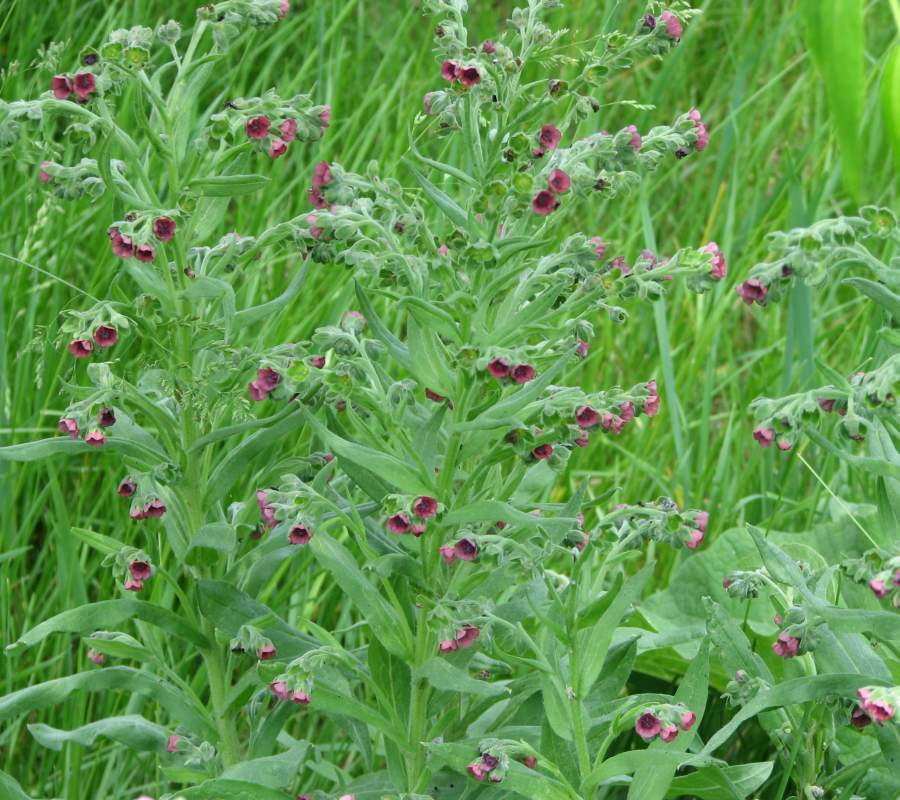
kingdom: Plantae
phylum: Tracheophyta
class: Magnoliopsida
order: Boraginales
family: Boraginaceae
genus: Cynoglossum
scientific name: Cynoglossum officinale
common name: Hound's-tongue
